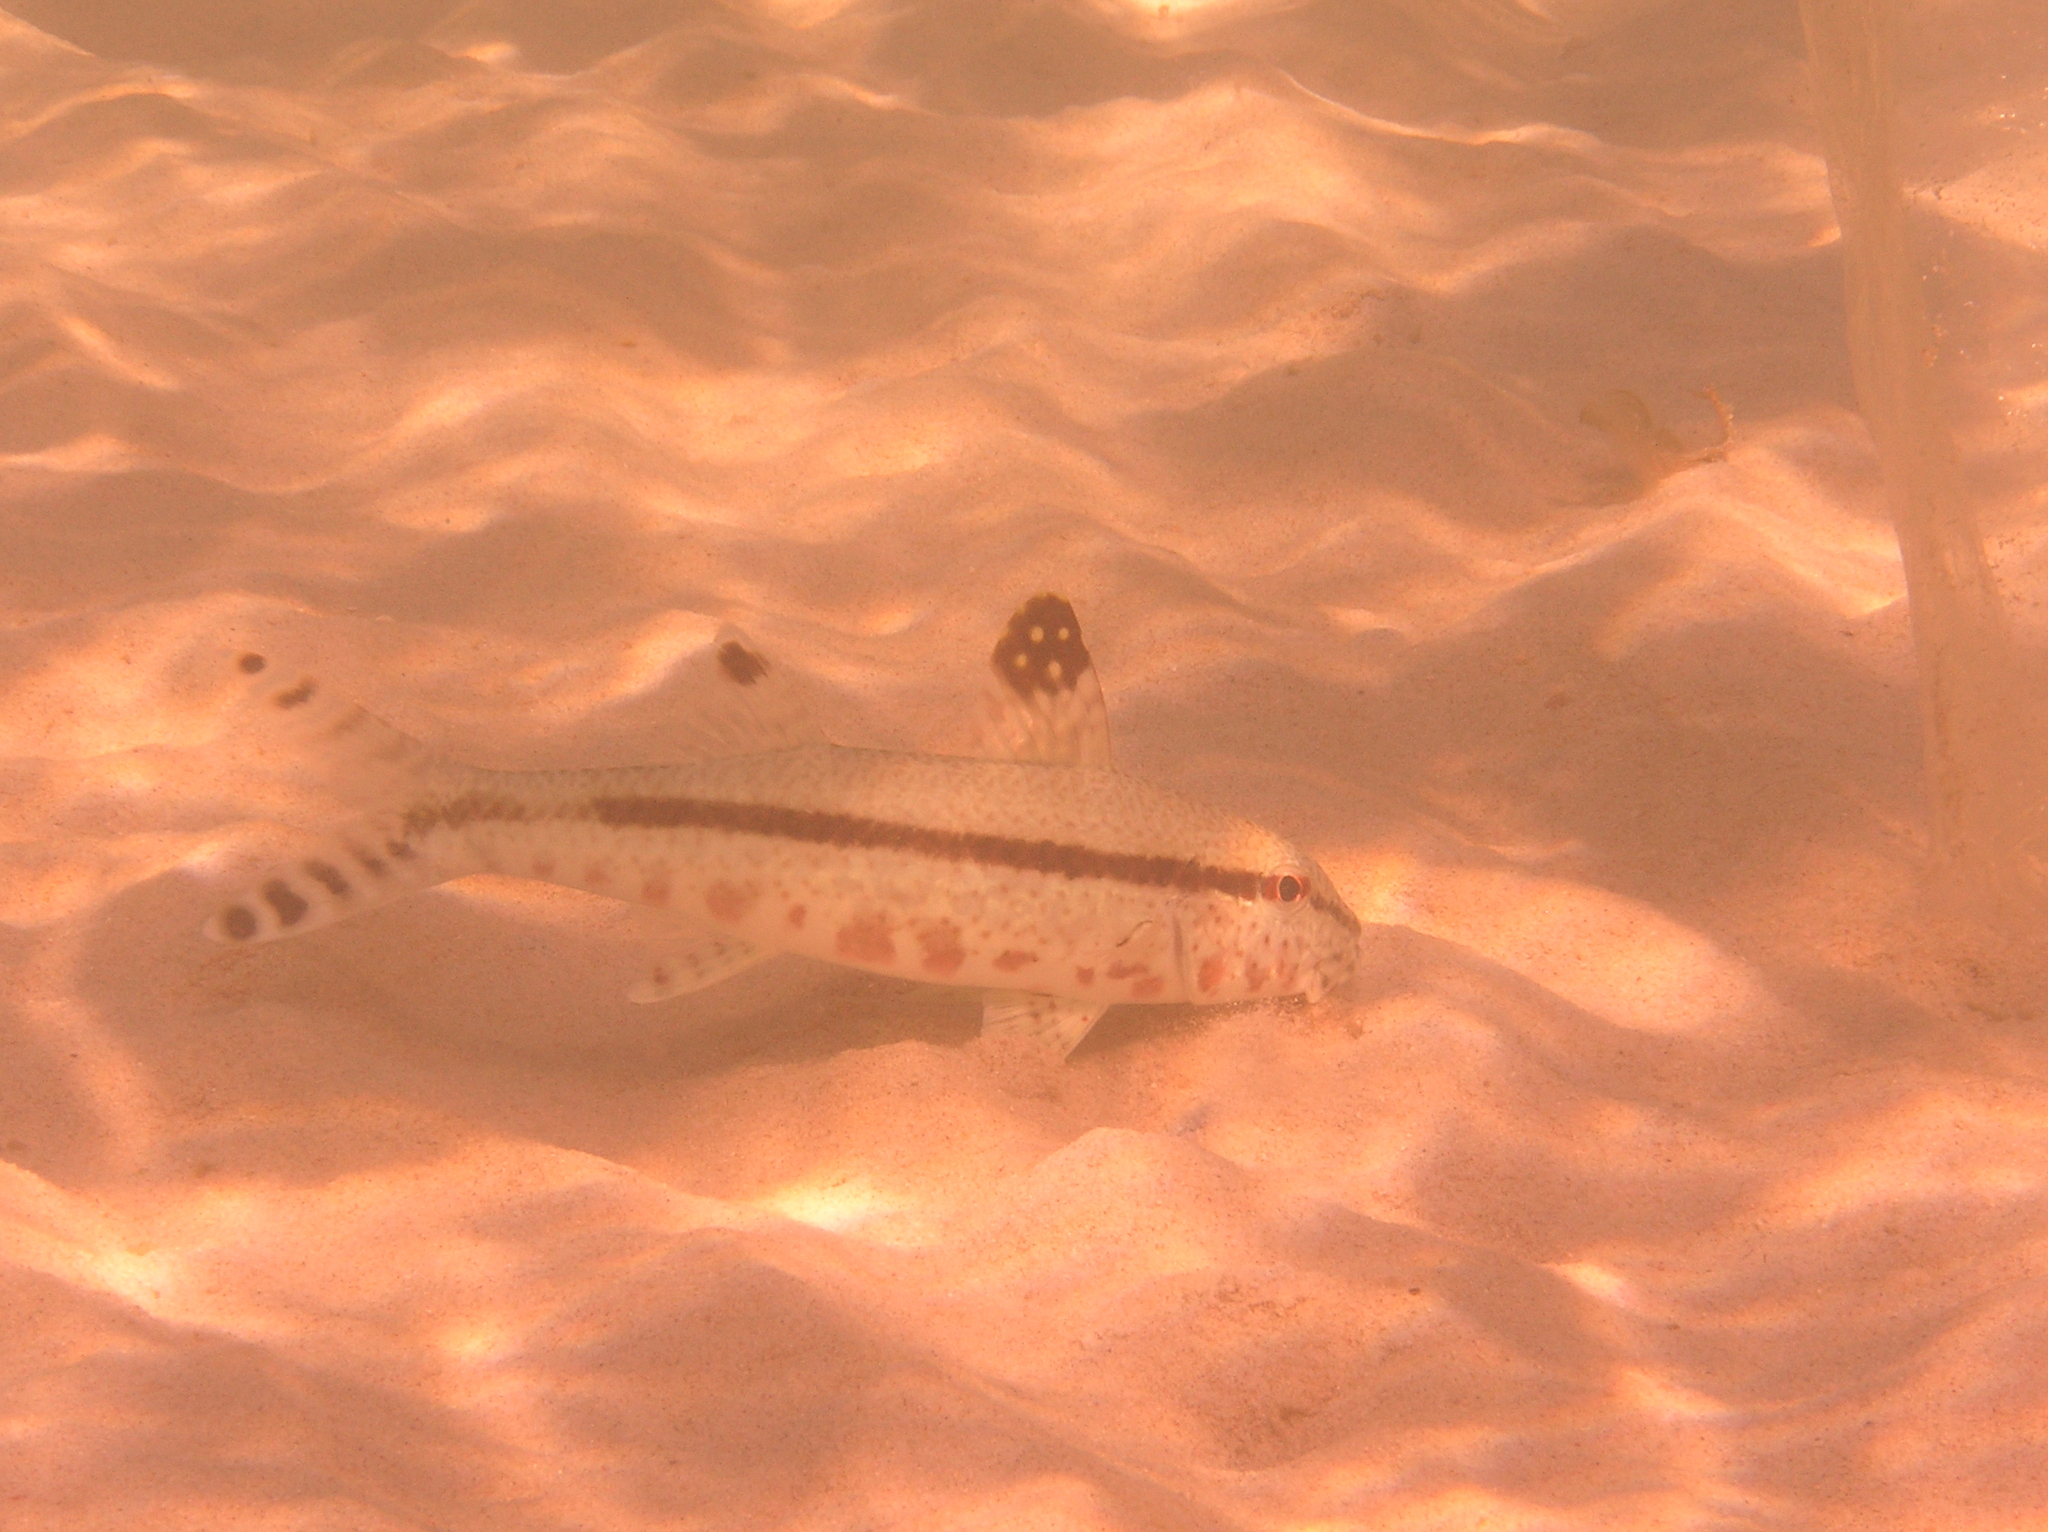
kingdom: Animalia
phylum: Chordata
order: Perciformes
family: Mullidae
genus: Upeneus
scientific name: Upeneus tragula
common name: Freckled goatfish
